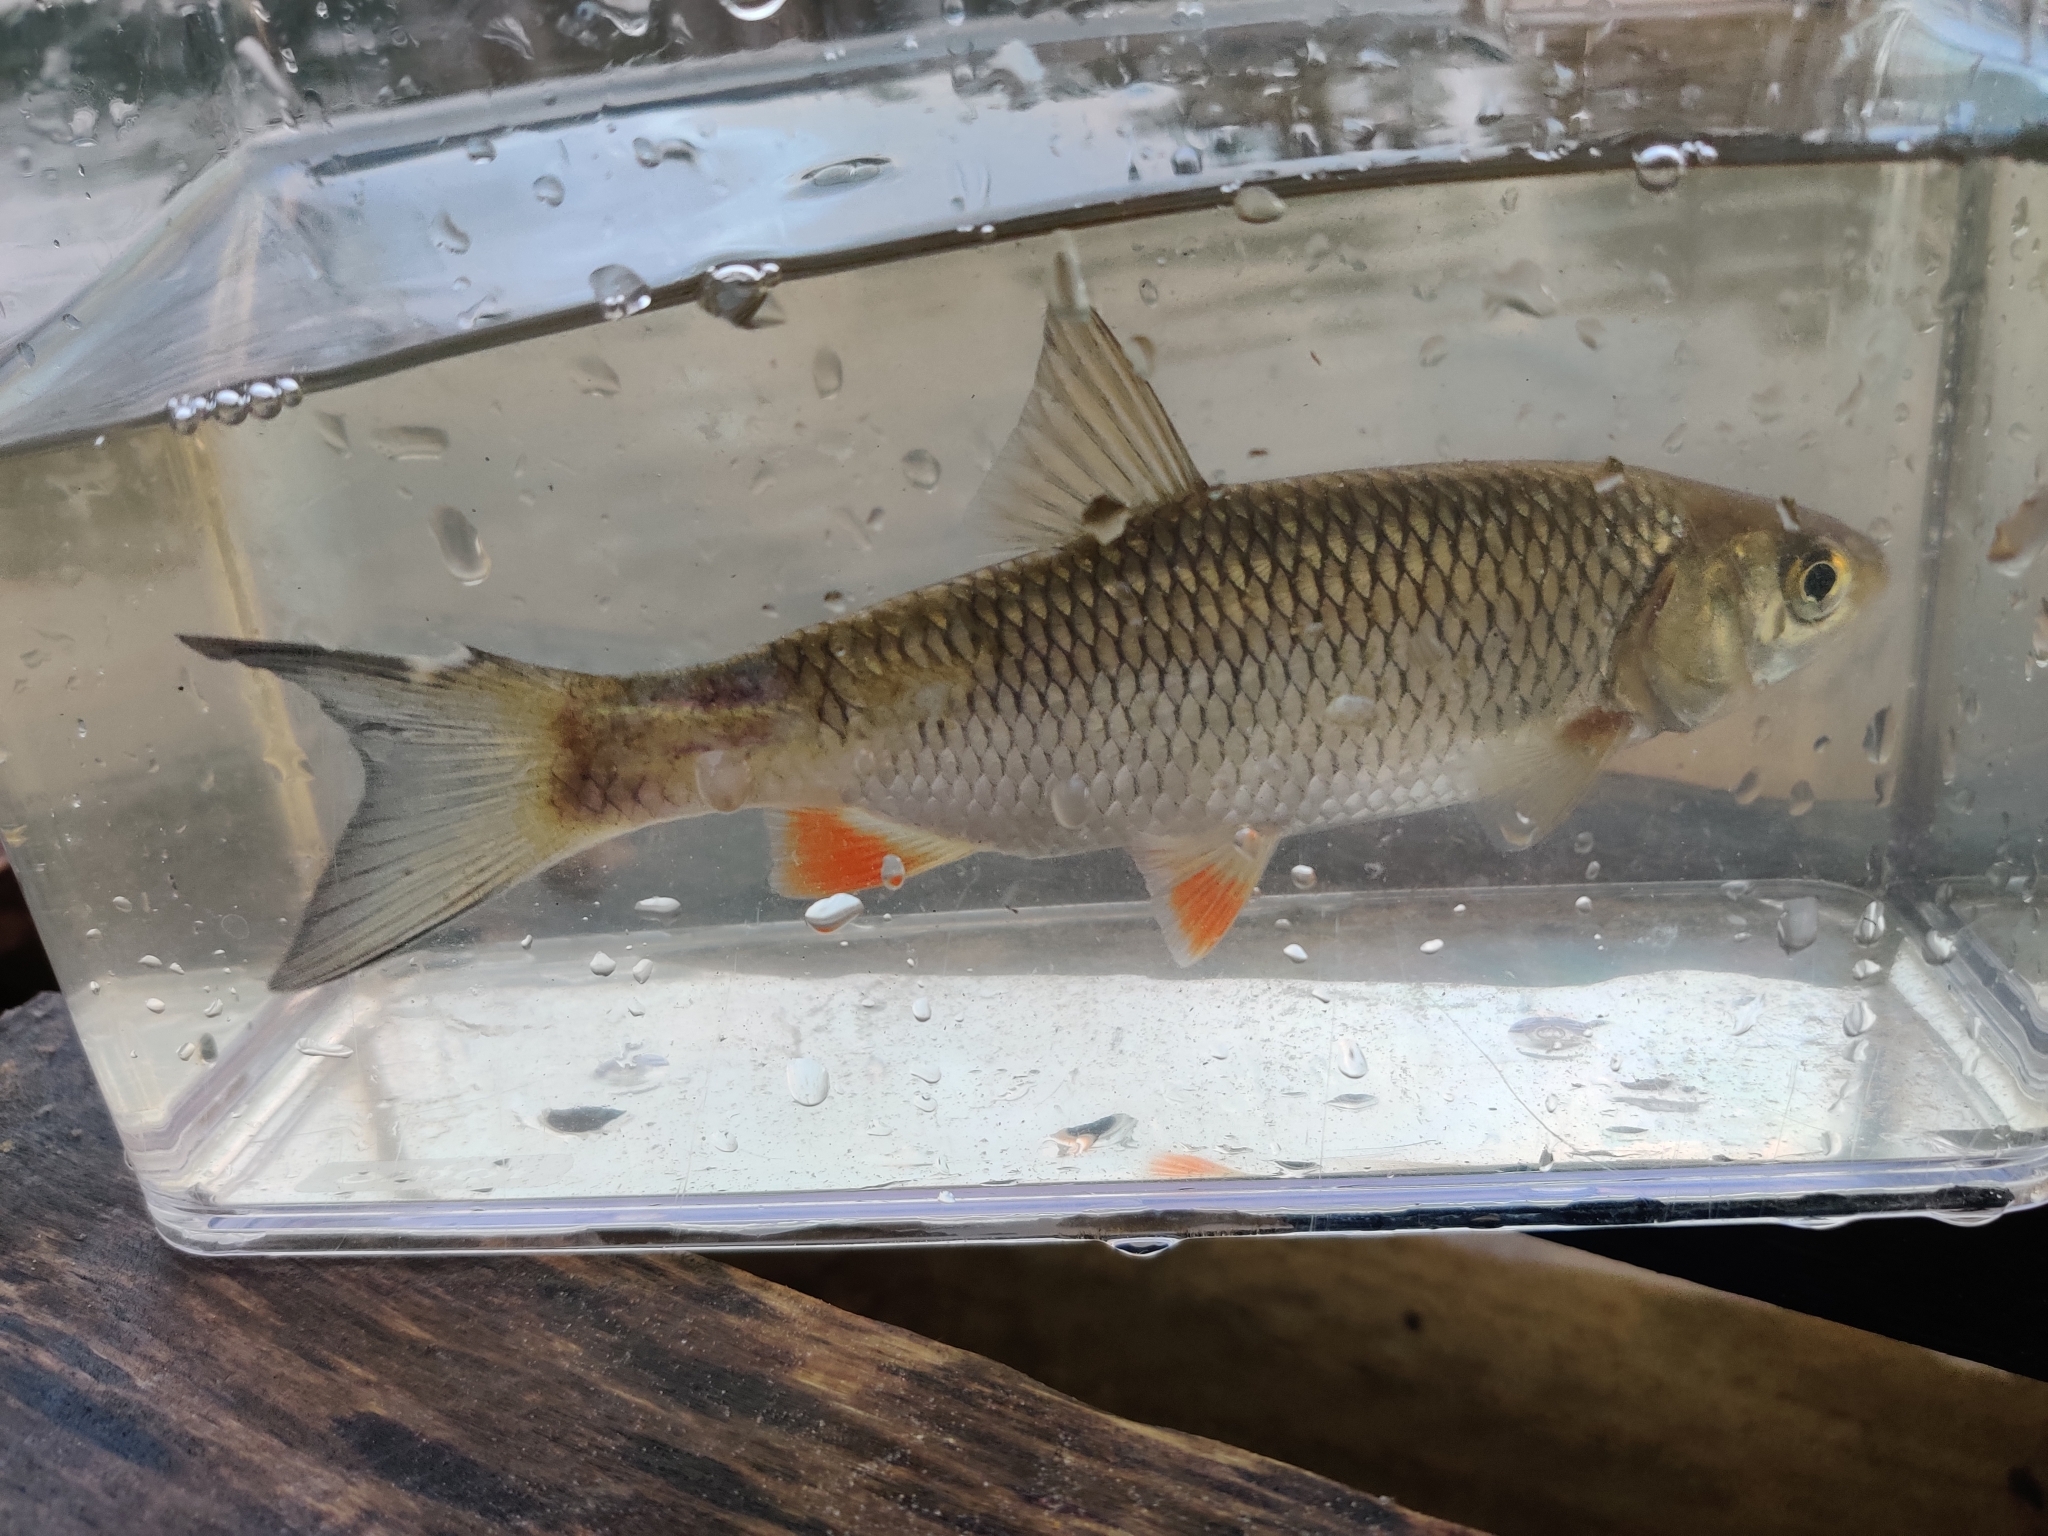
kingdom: Animalia
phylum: Chordata
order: Cypriniformes
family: Cyprinidae
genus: Squalius
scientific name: Squalius cephalus
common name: Chub
